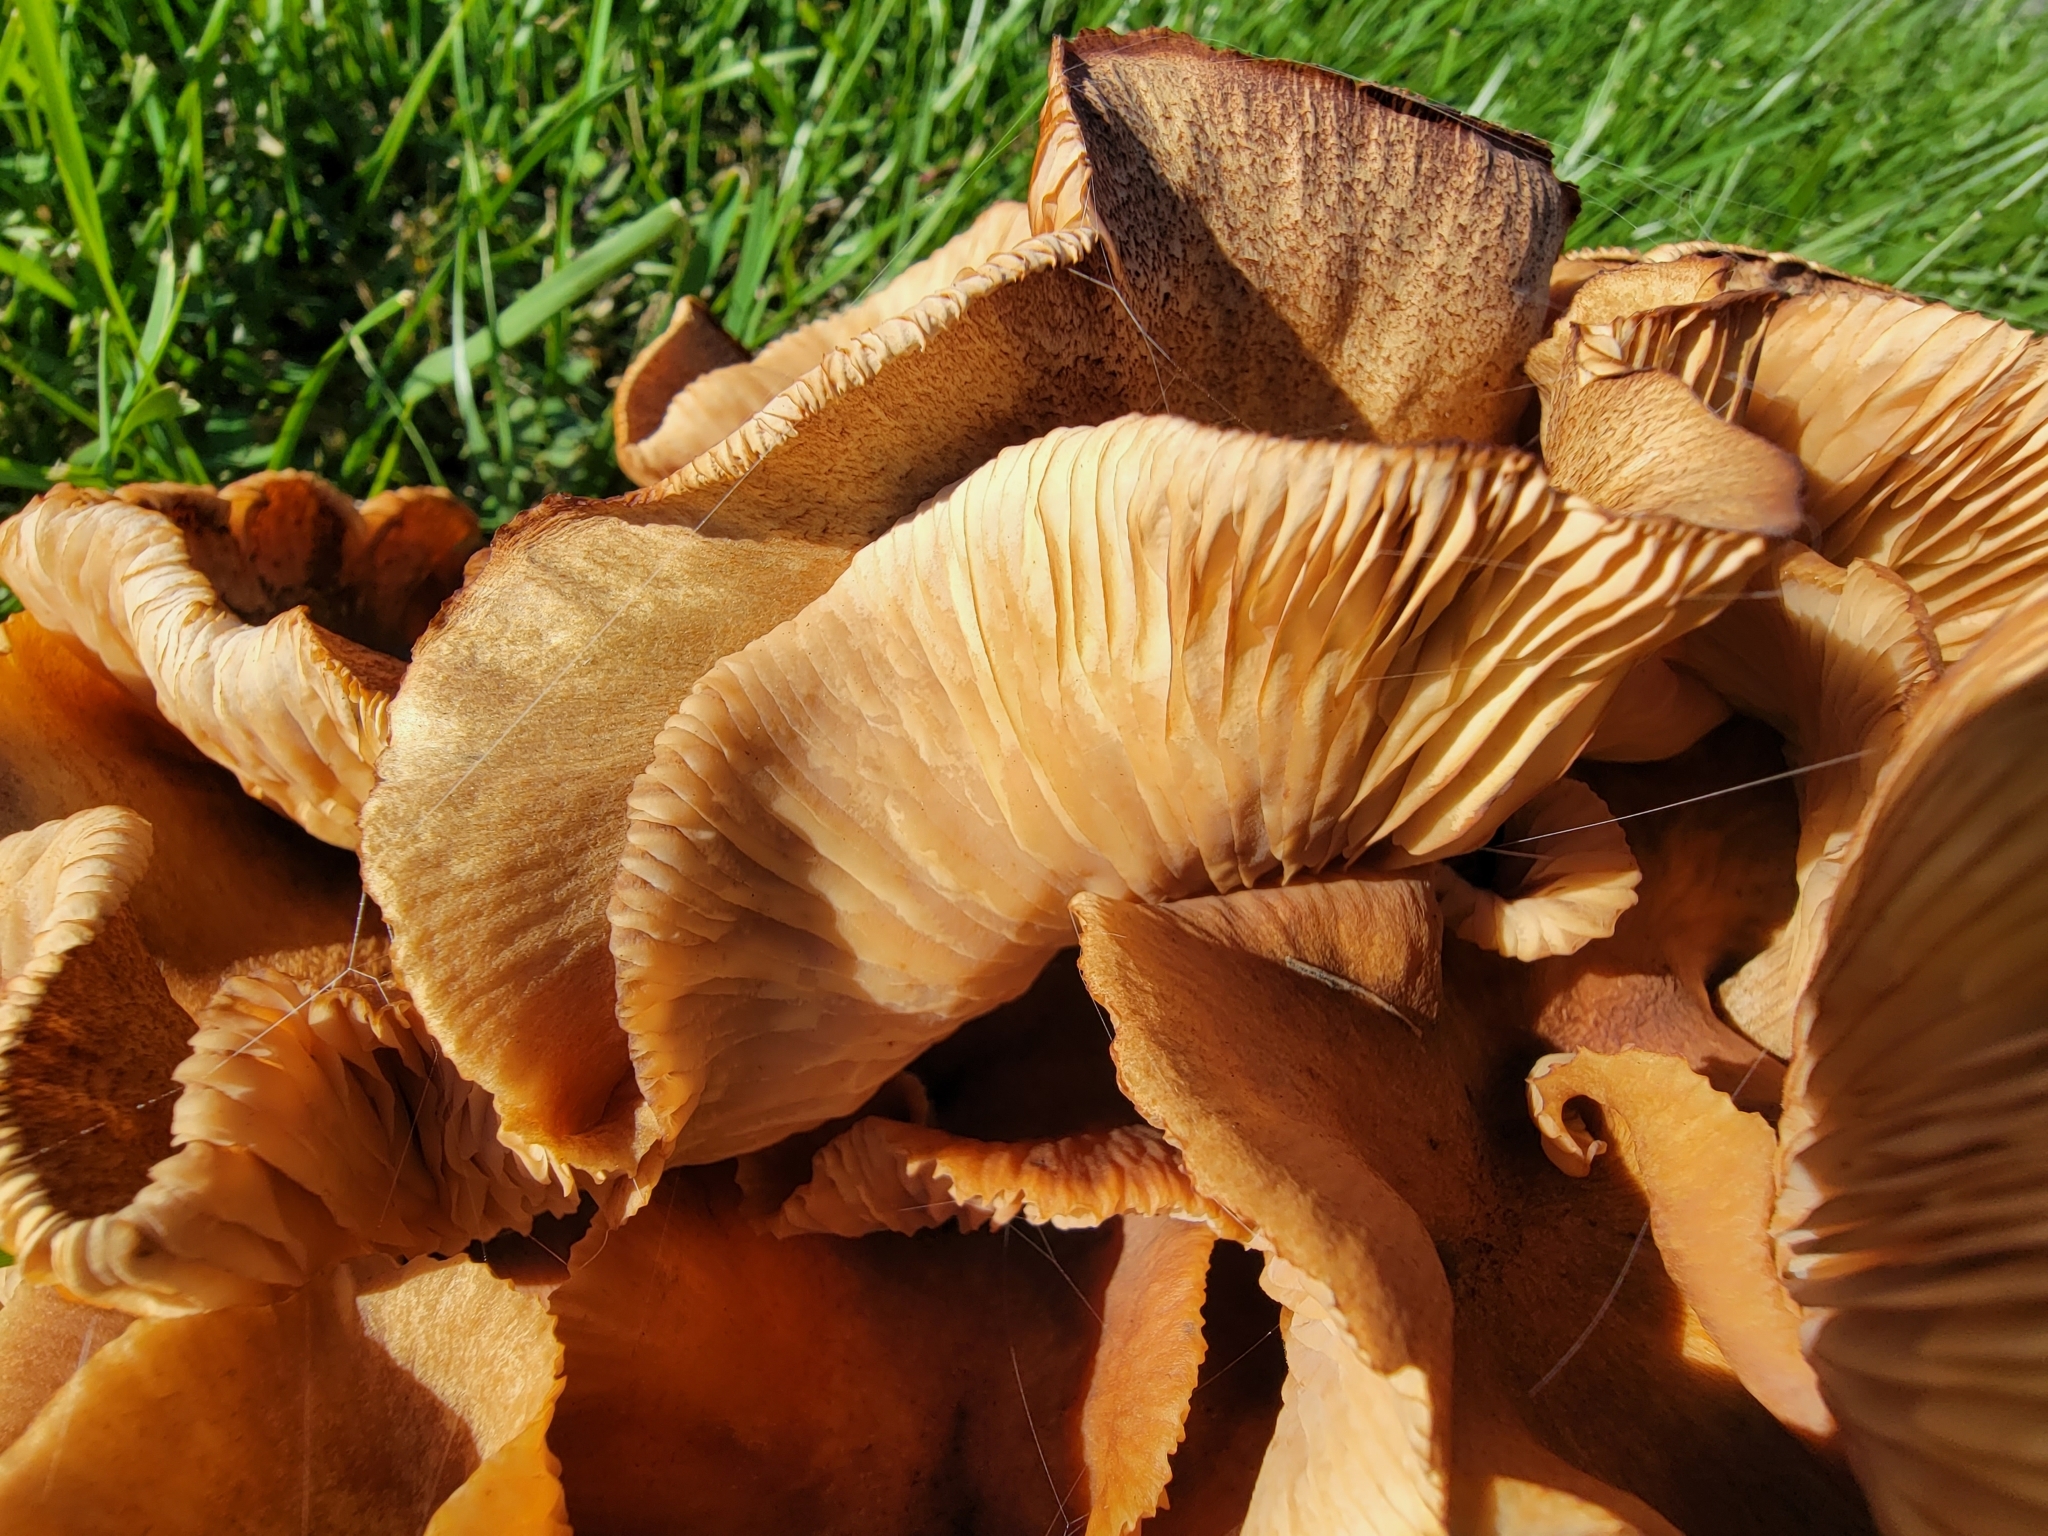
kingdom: Fungi
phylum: Basidiomycota
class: Agaricomycetes
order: Agaricales
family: Physalacriaceae
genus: Desarmillaria
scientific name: Desarmillaria caespitosa
